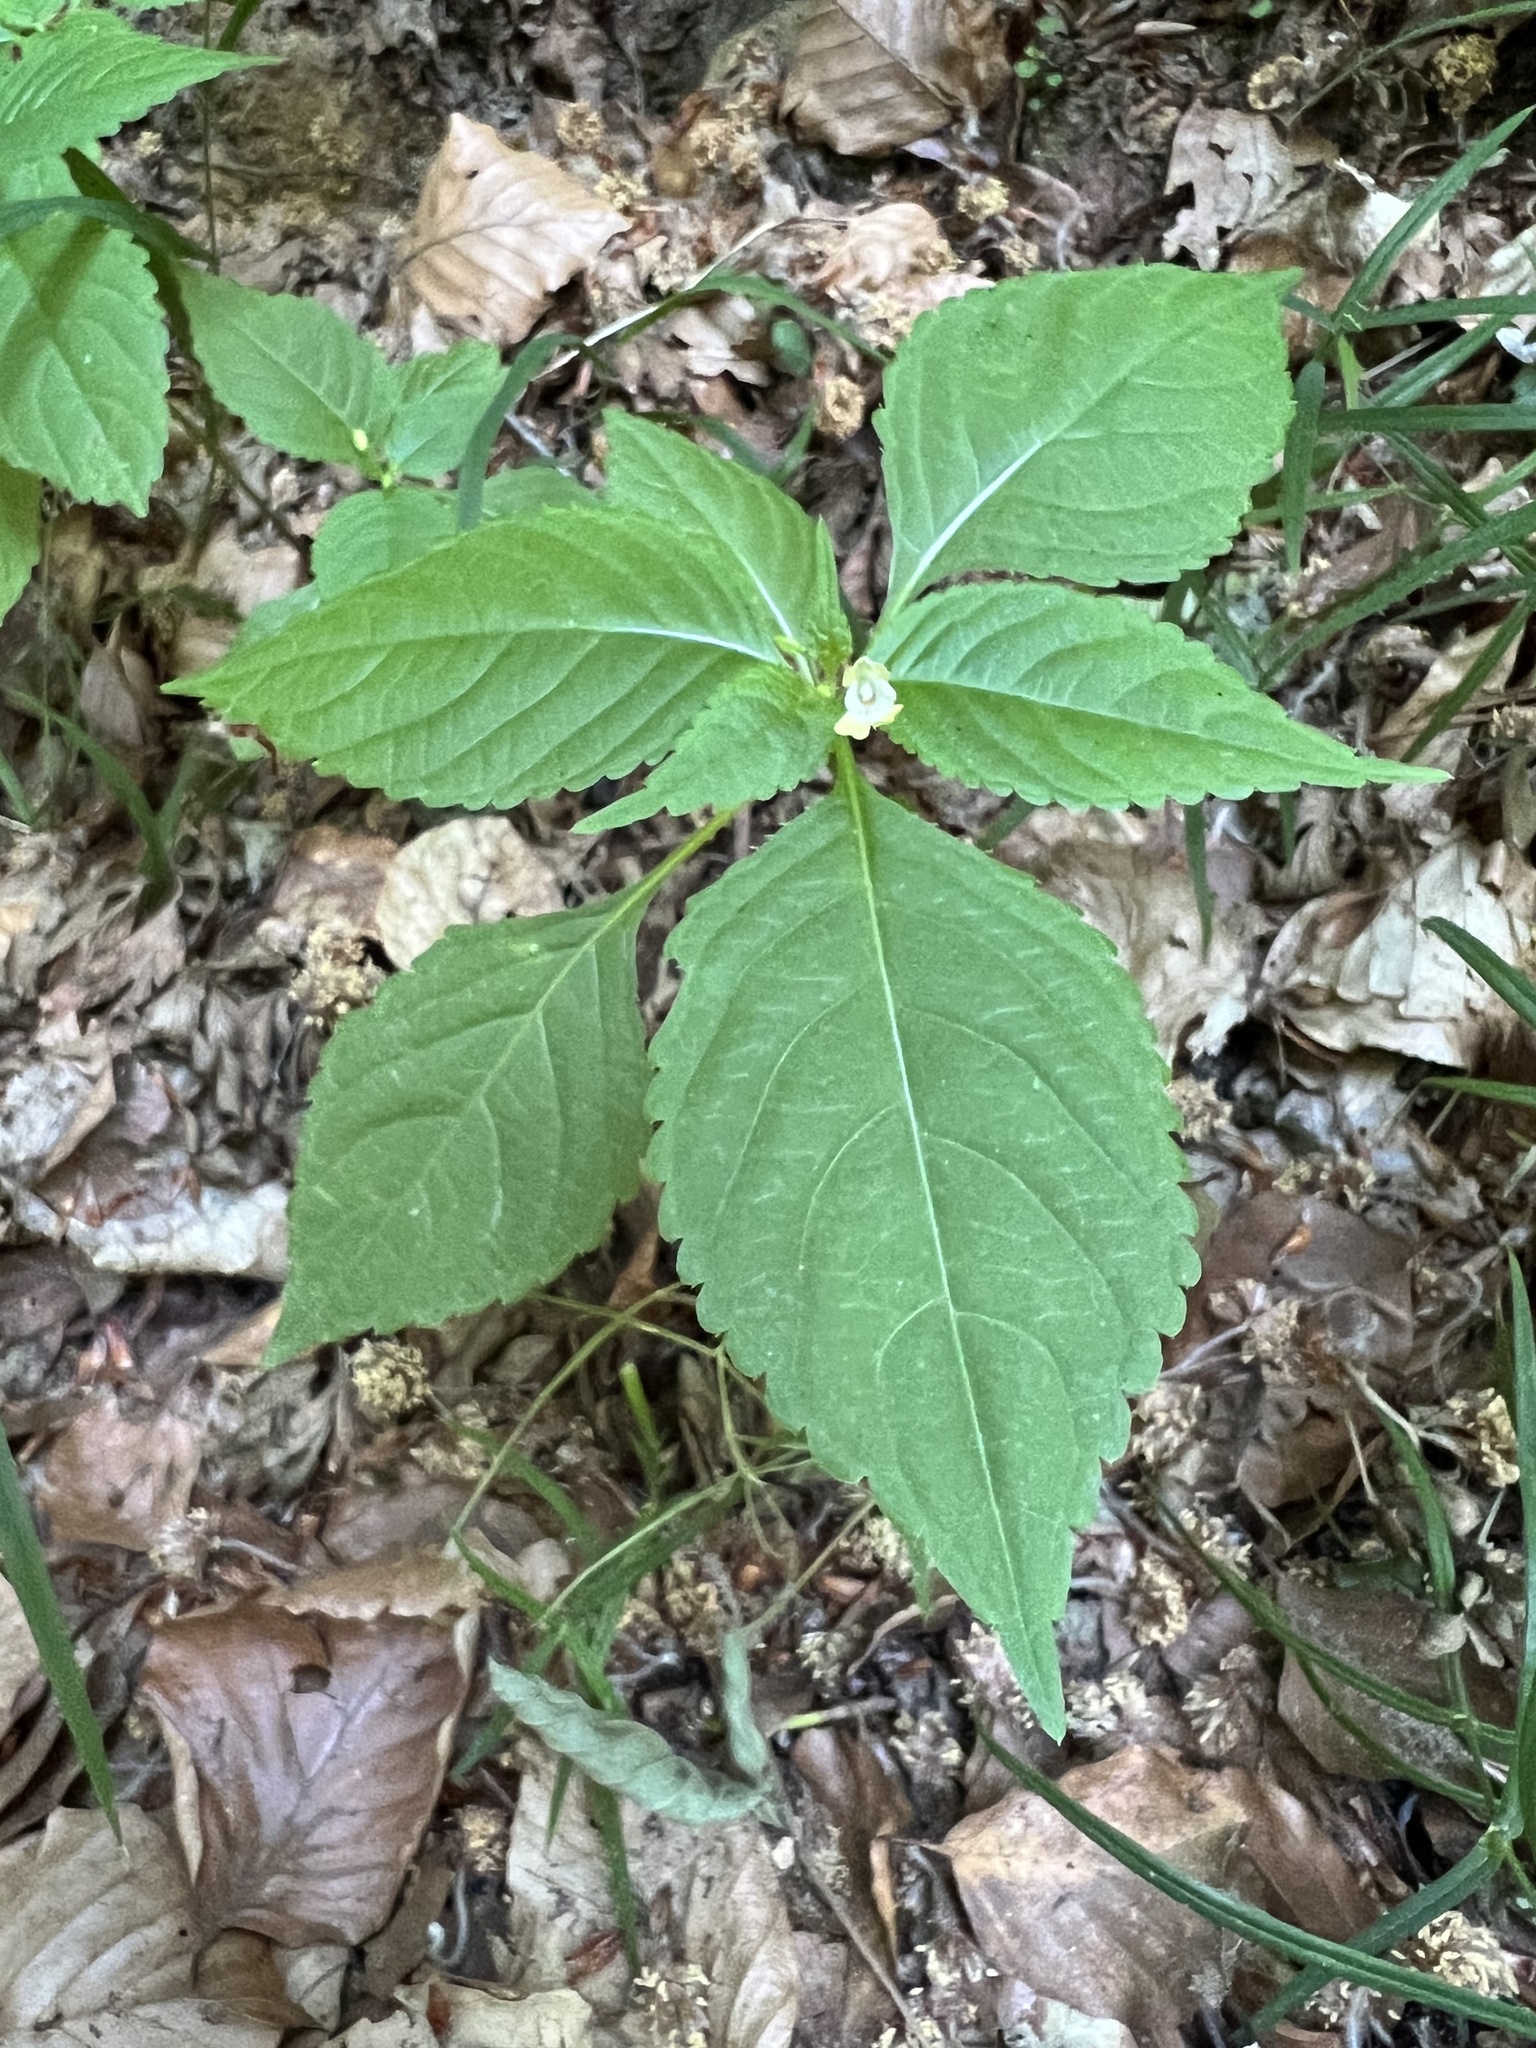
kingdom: Plantae
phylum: Tracheophyta
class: Magnoliopsida
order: Ericales
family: Balsaminaceae
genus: Impatiens
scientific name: Impatiens parviflora
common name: Small balsam
